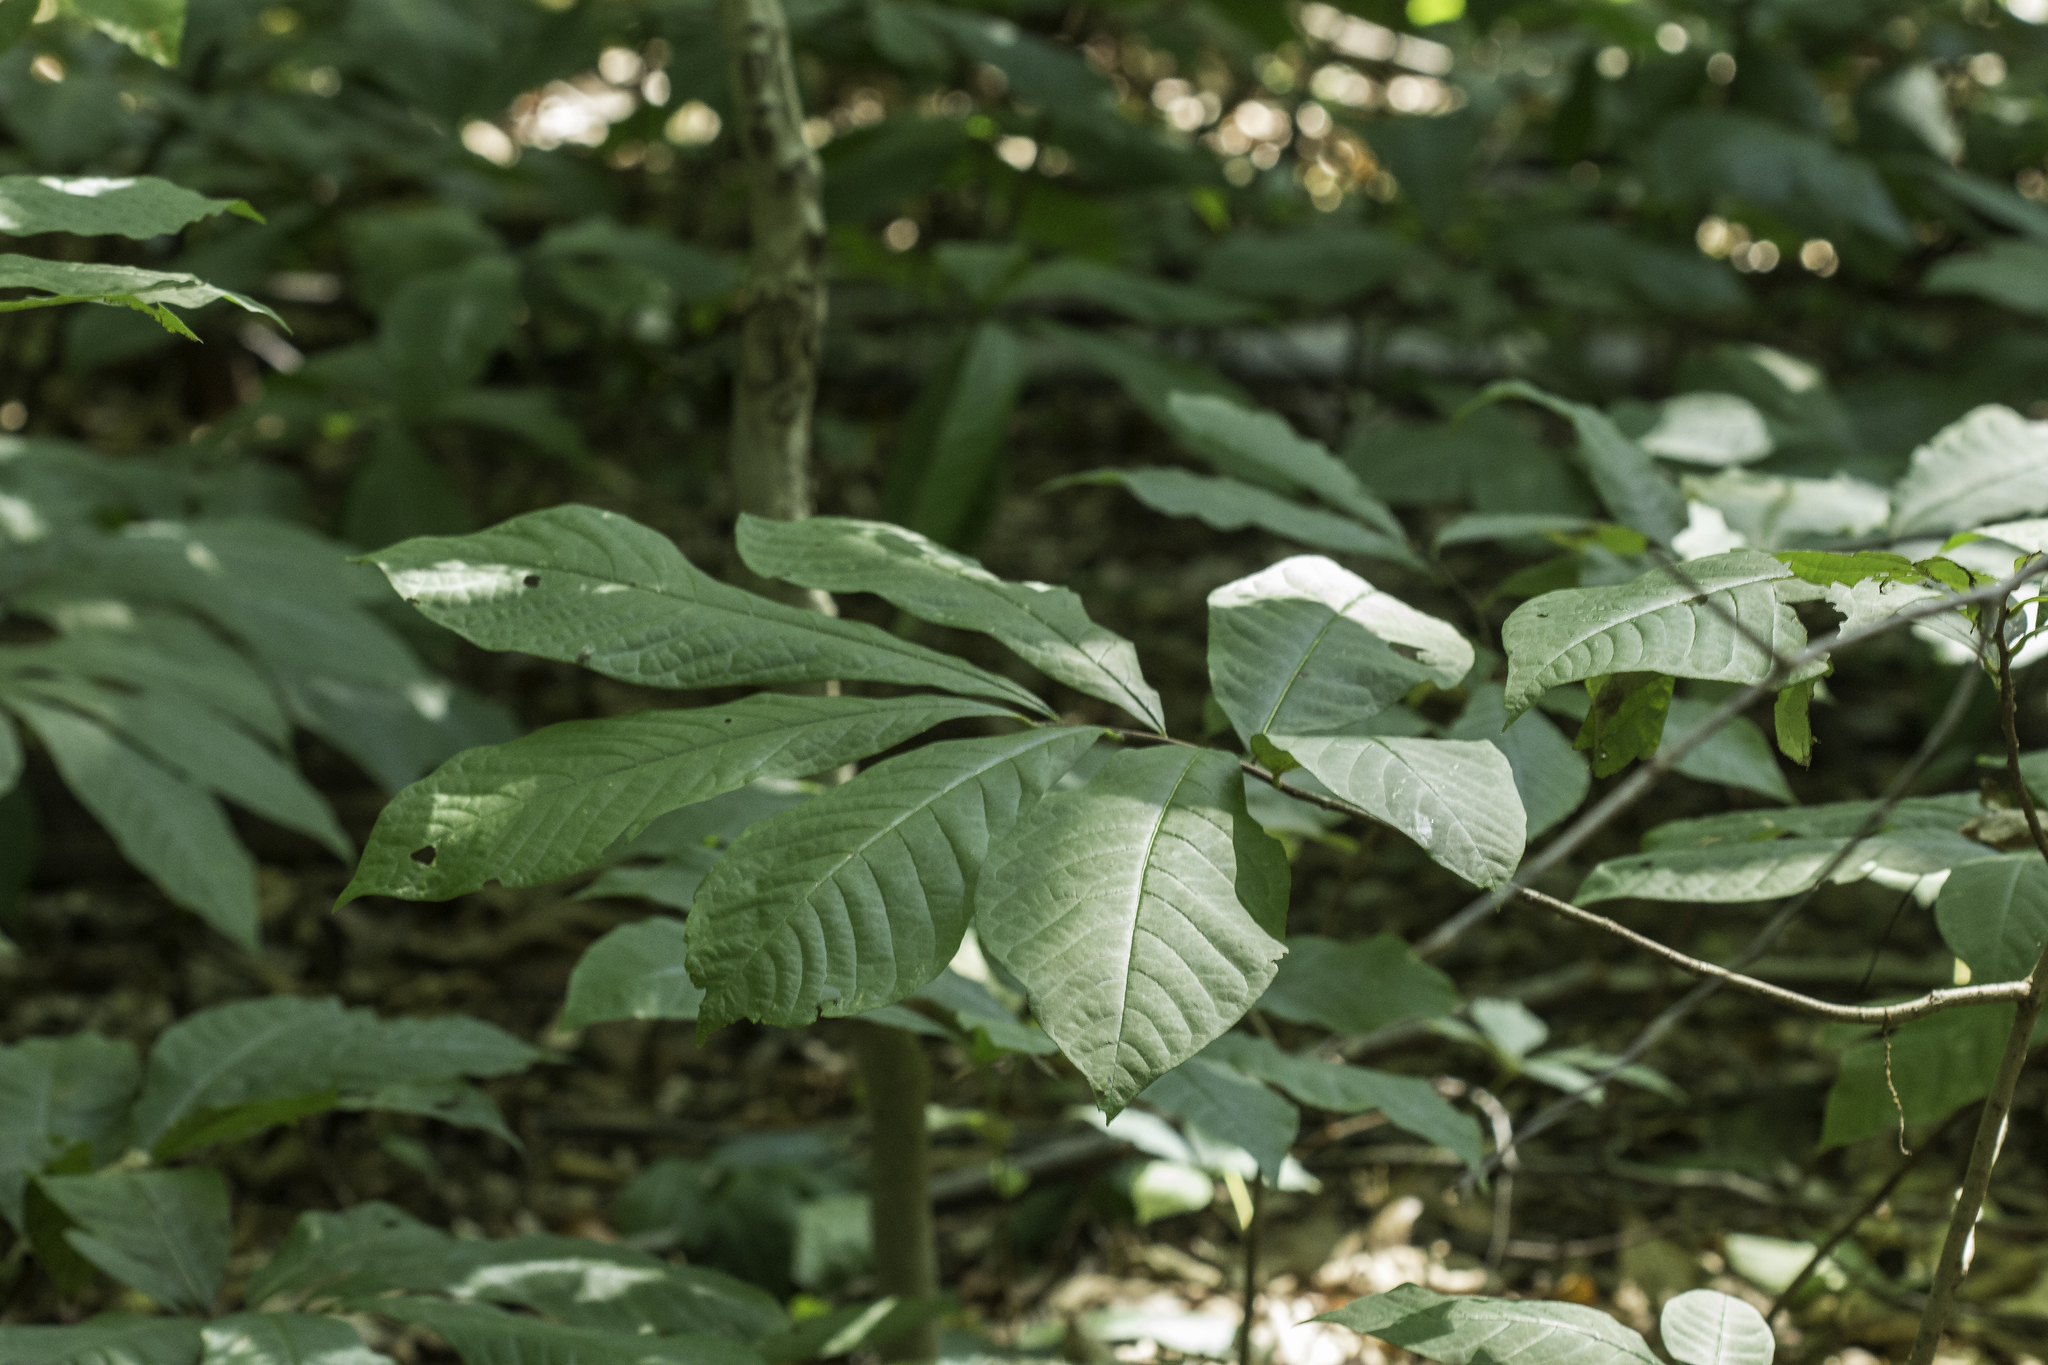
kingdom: Plantae
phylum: Tracheophyta
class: Magnoliopsida
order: Magnoliales
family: Annonaceae
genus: Asimina
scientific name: Asimina triloba
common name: Dog-banana
